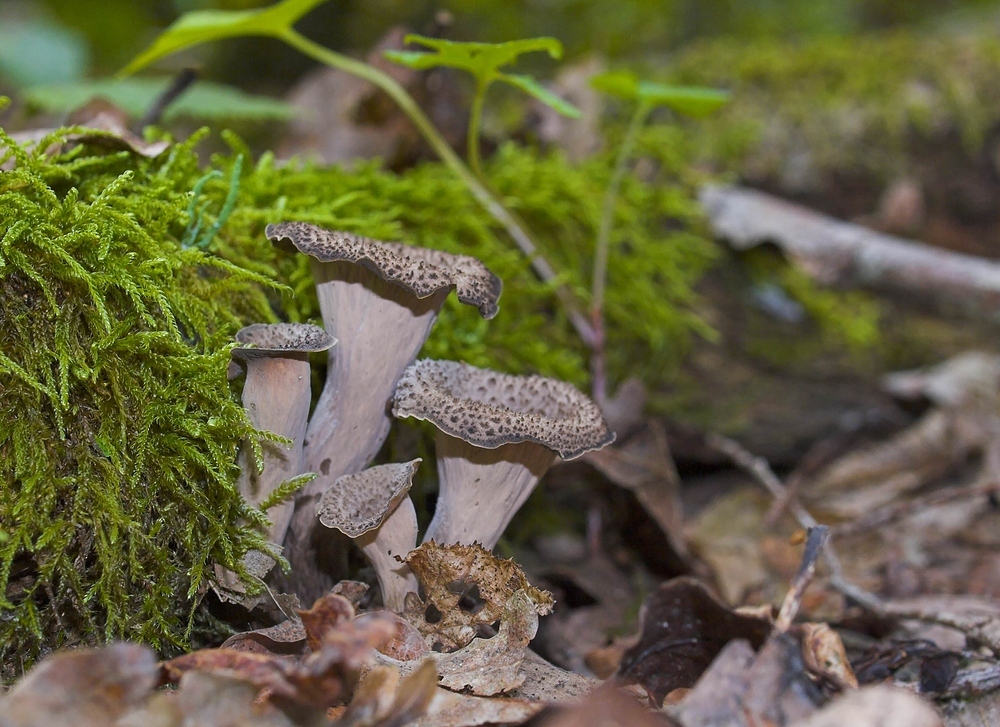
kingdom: Fungi
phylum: Basidiomycota
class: Agaricomycetes
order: Cantharellales
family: Hydnaceae
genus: Craterellus
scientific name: Craterellus cornucopioides
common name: Horn of plenty
